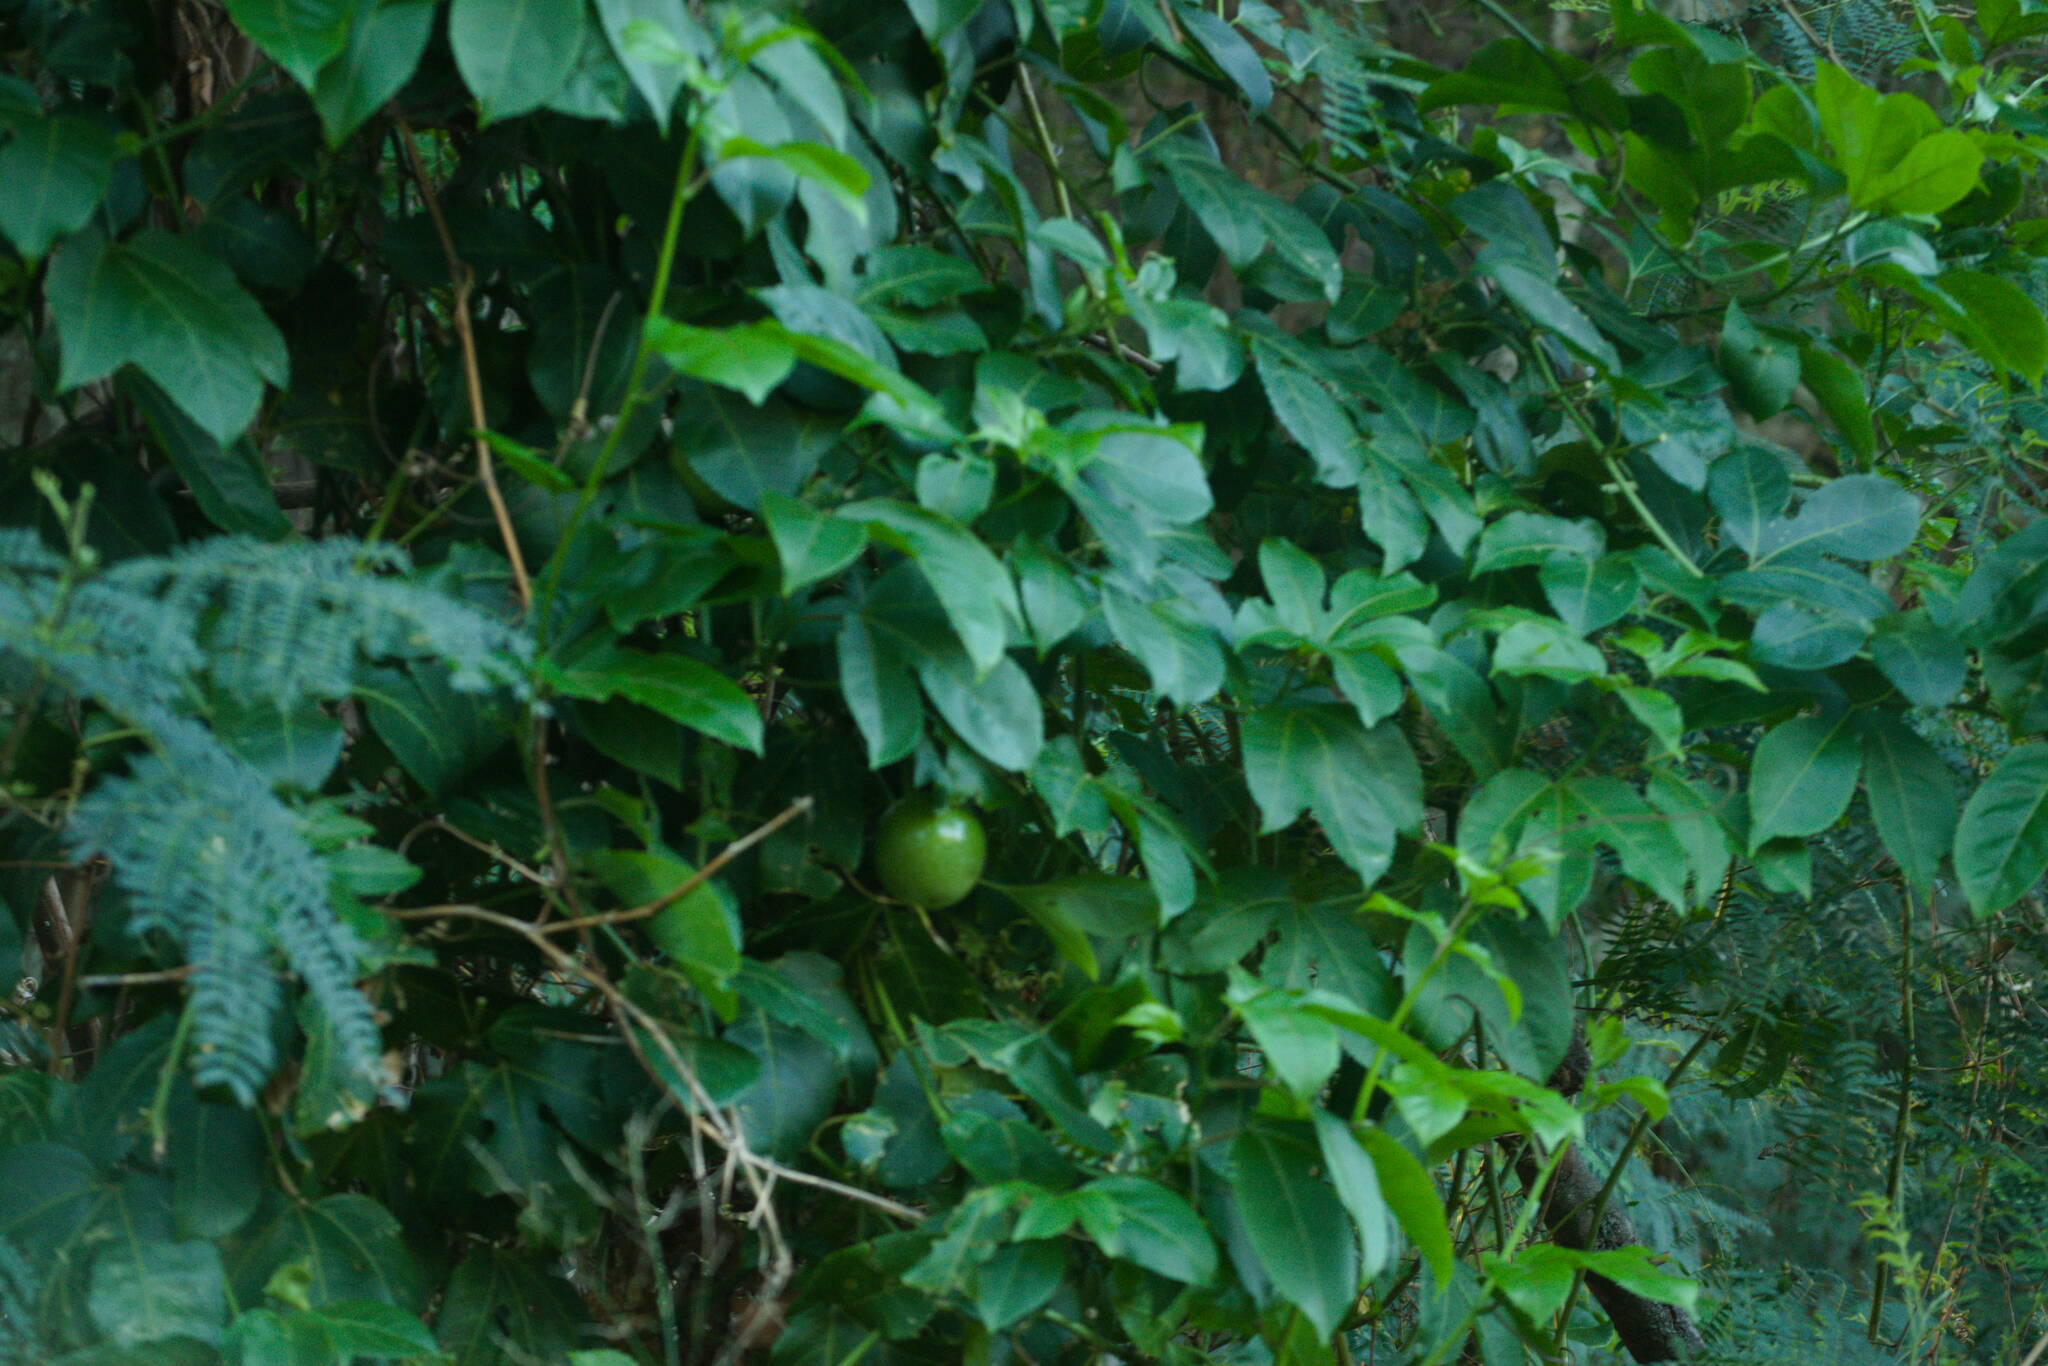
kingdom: Plantae
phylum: Tracheophyta
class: Magnoliopsida
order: Malpighiales
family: Passifloraceae
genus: Passiflora
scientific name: Passiflora edulis
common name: Purple granadilla
